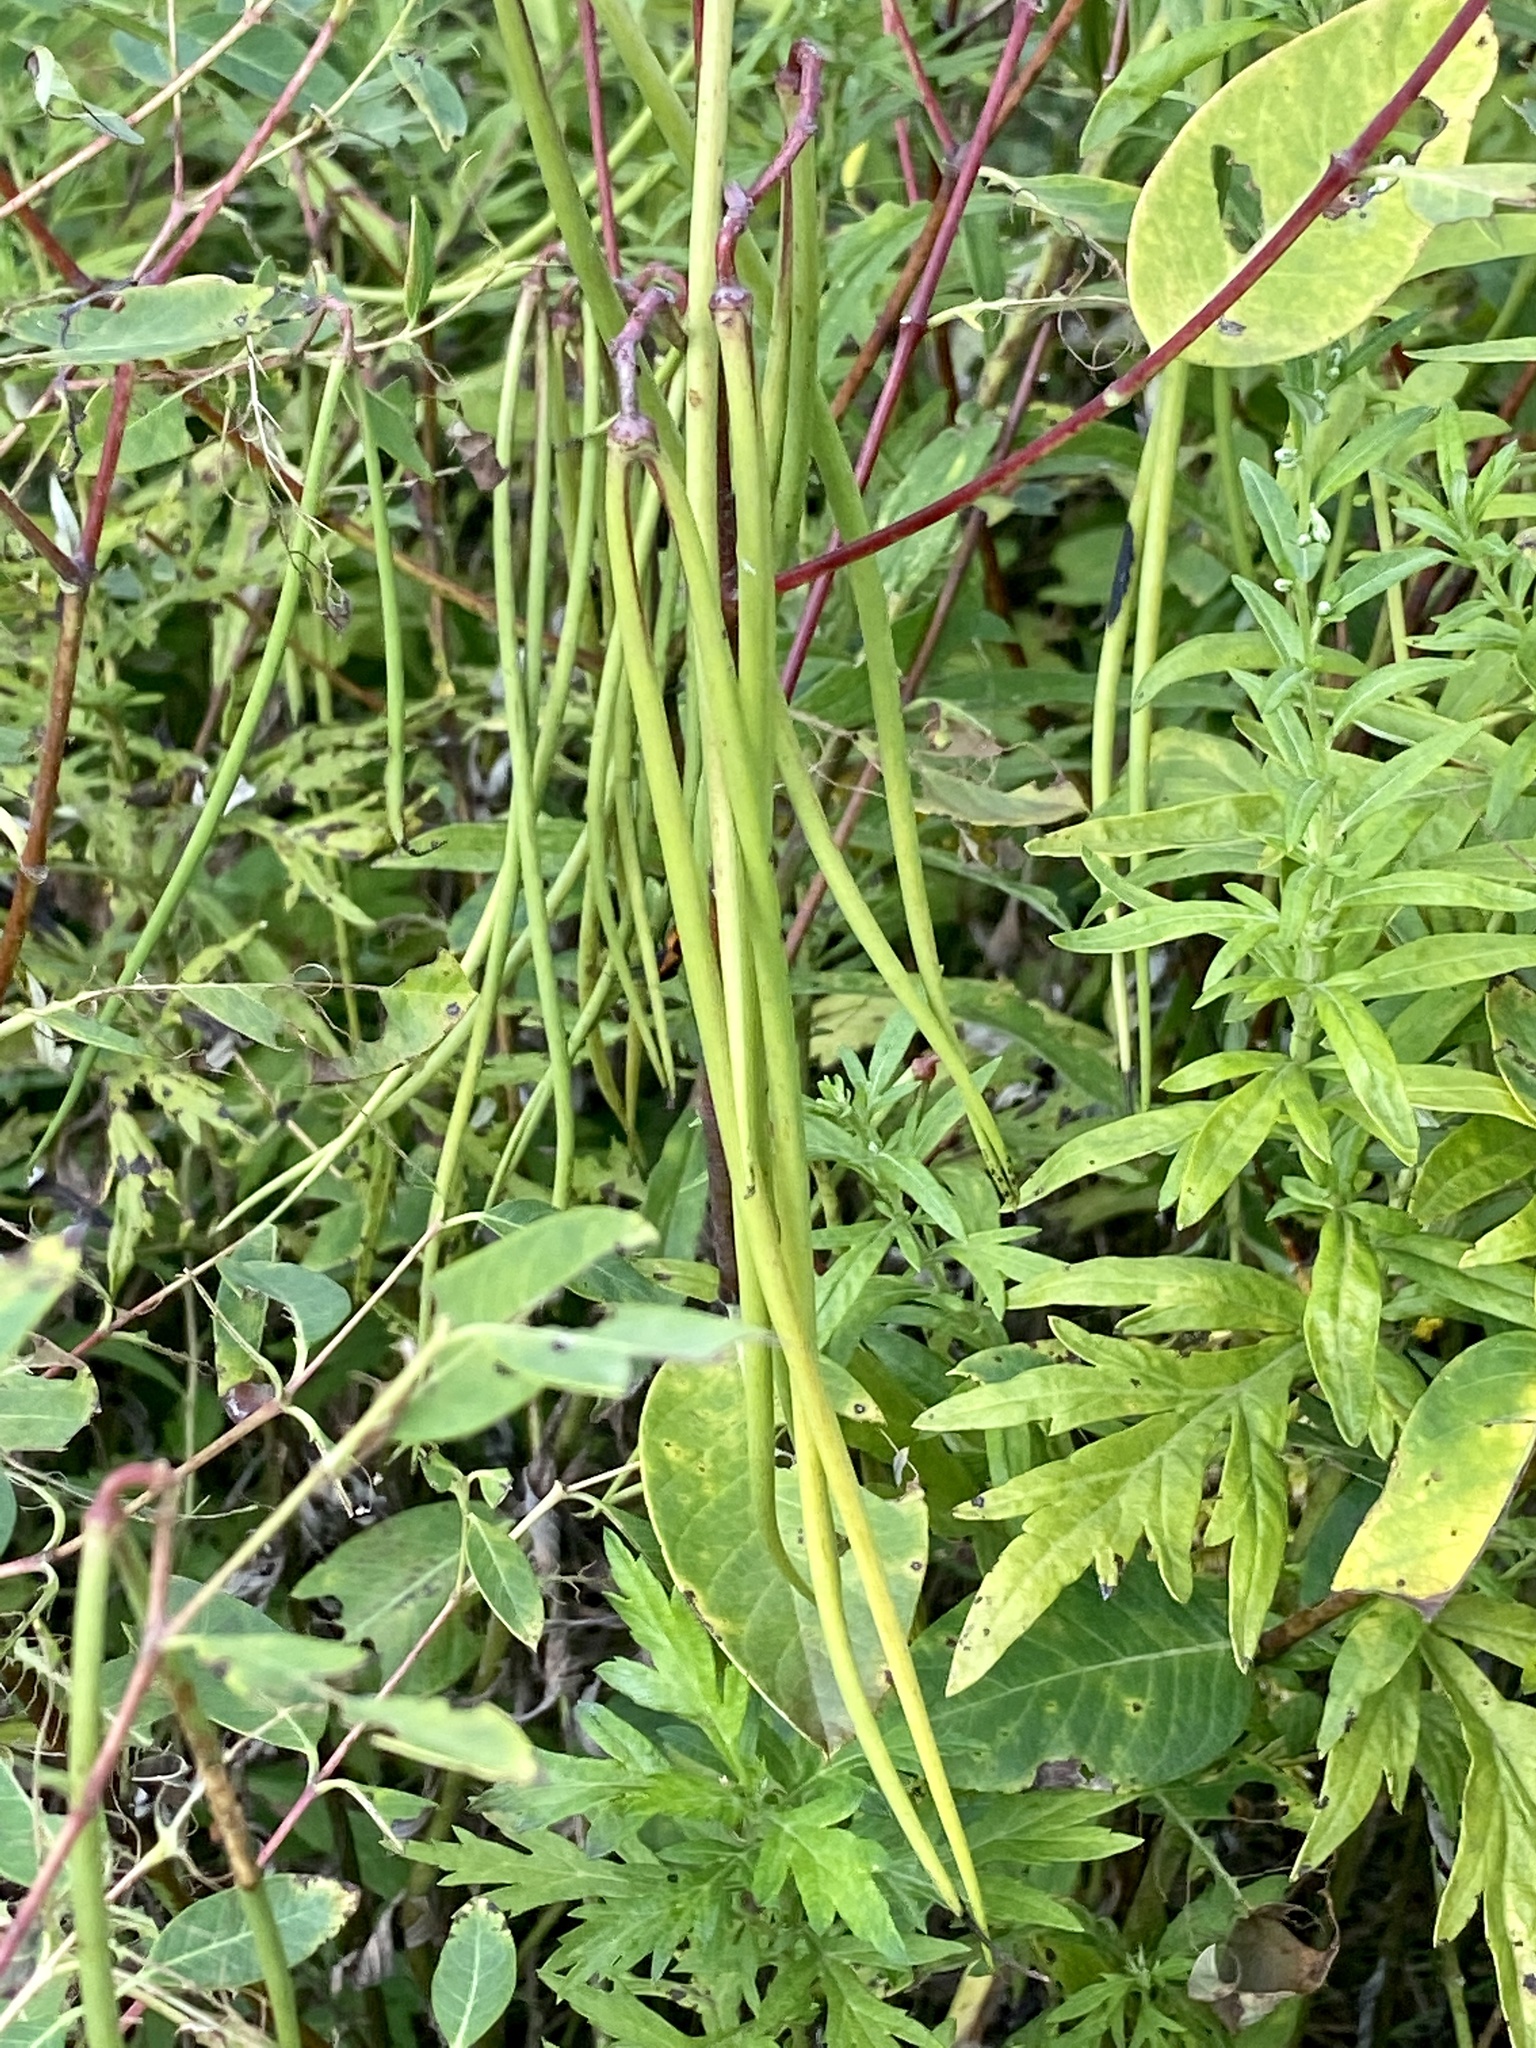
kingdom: Plantae
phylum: Tracheophyta
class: Magnoliopsida
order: Gentianales
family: Apocynaceae
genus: Apocynum
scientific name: Apocynum cannabinum
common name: Hemp dogbane
